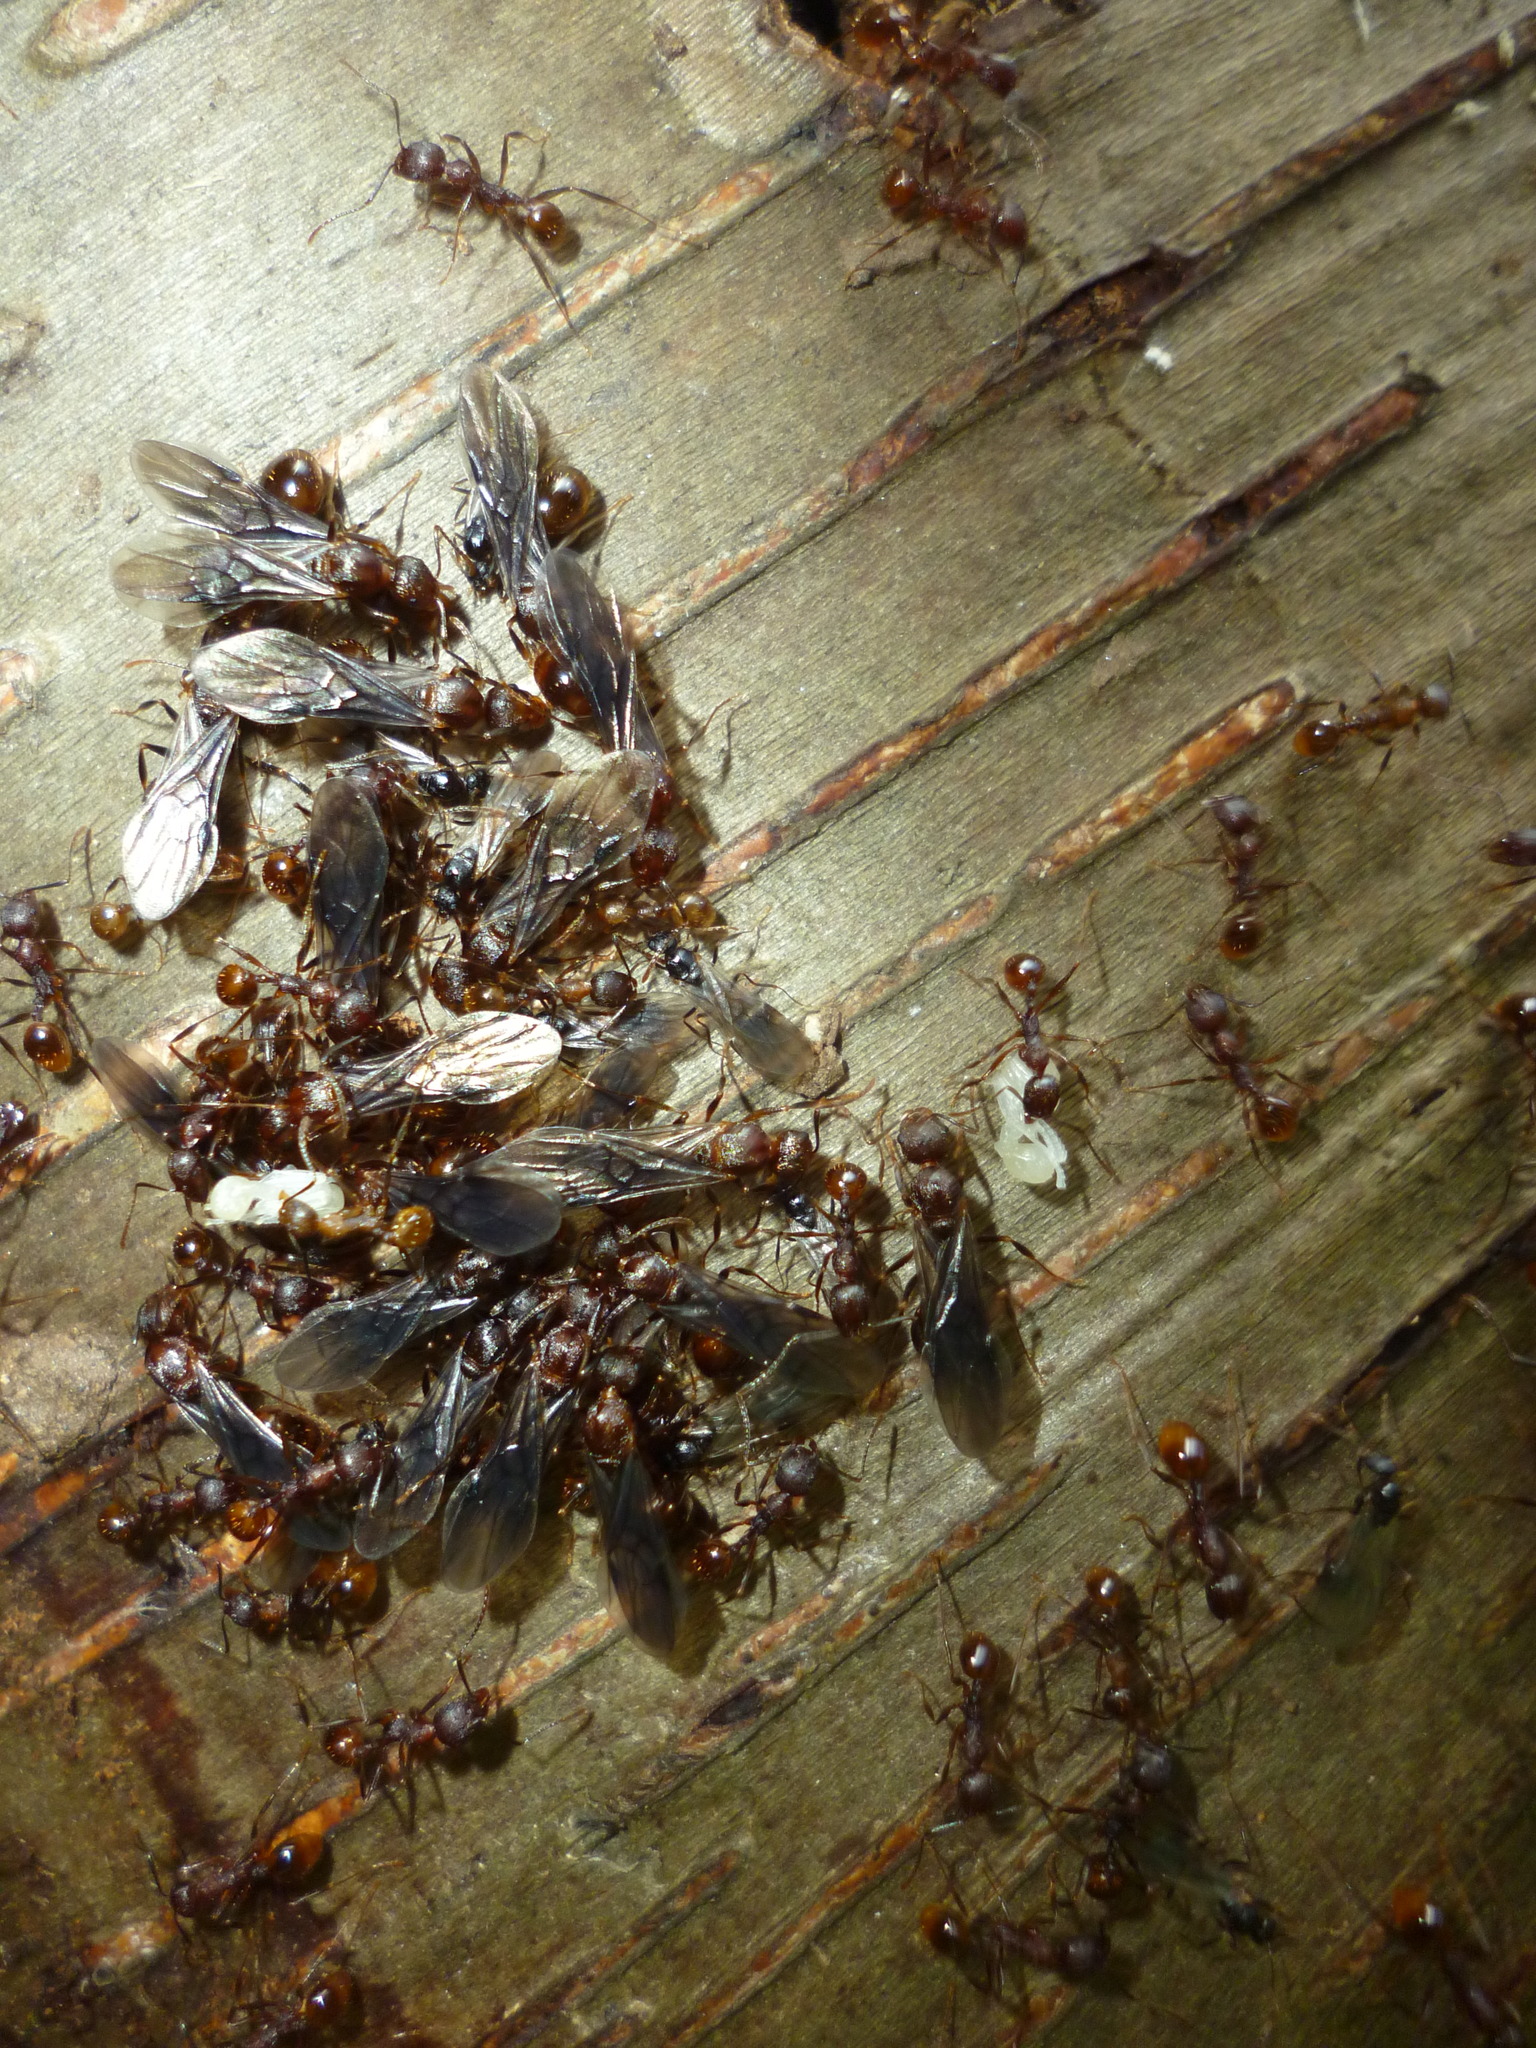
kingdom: Animalia
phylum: Arthropoda
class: Insecta
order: Hymenoptera
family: Formicidae
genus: Aphaenogaster
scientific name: Aphaenogaster fulva
